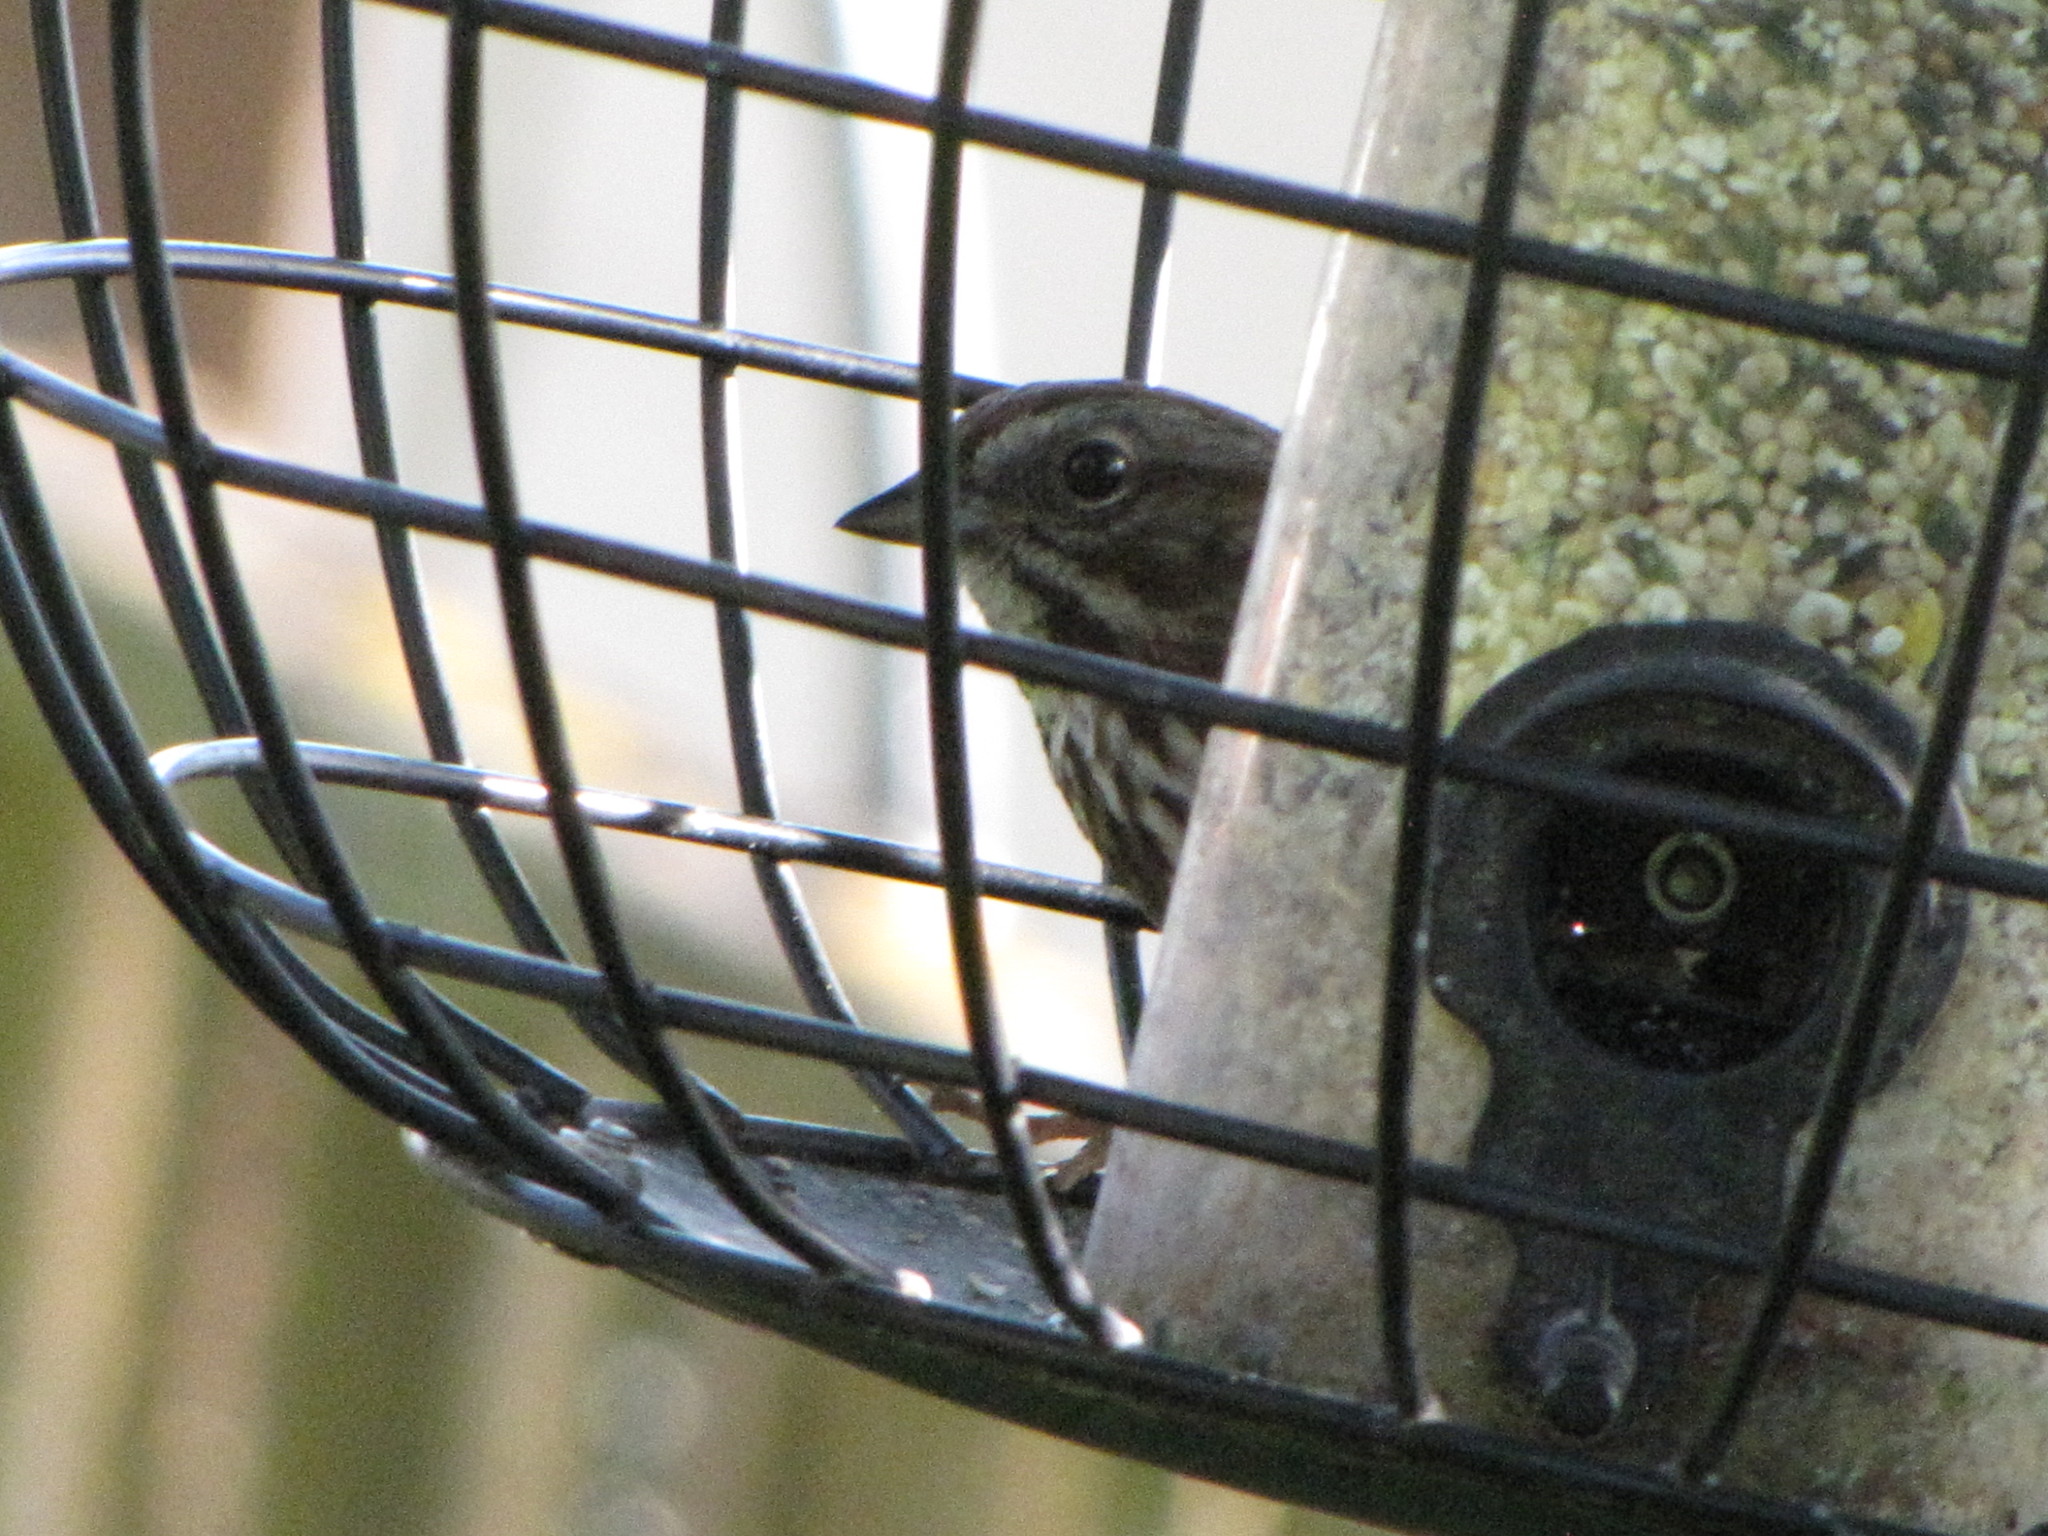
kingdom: Animalia
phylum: Chordata
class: Aves
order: Passeriformes
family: Passerellidae
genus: Melospiza
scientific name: Melospiza melodia
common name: Song sparrow
